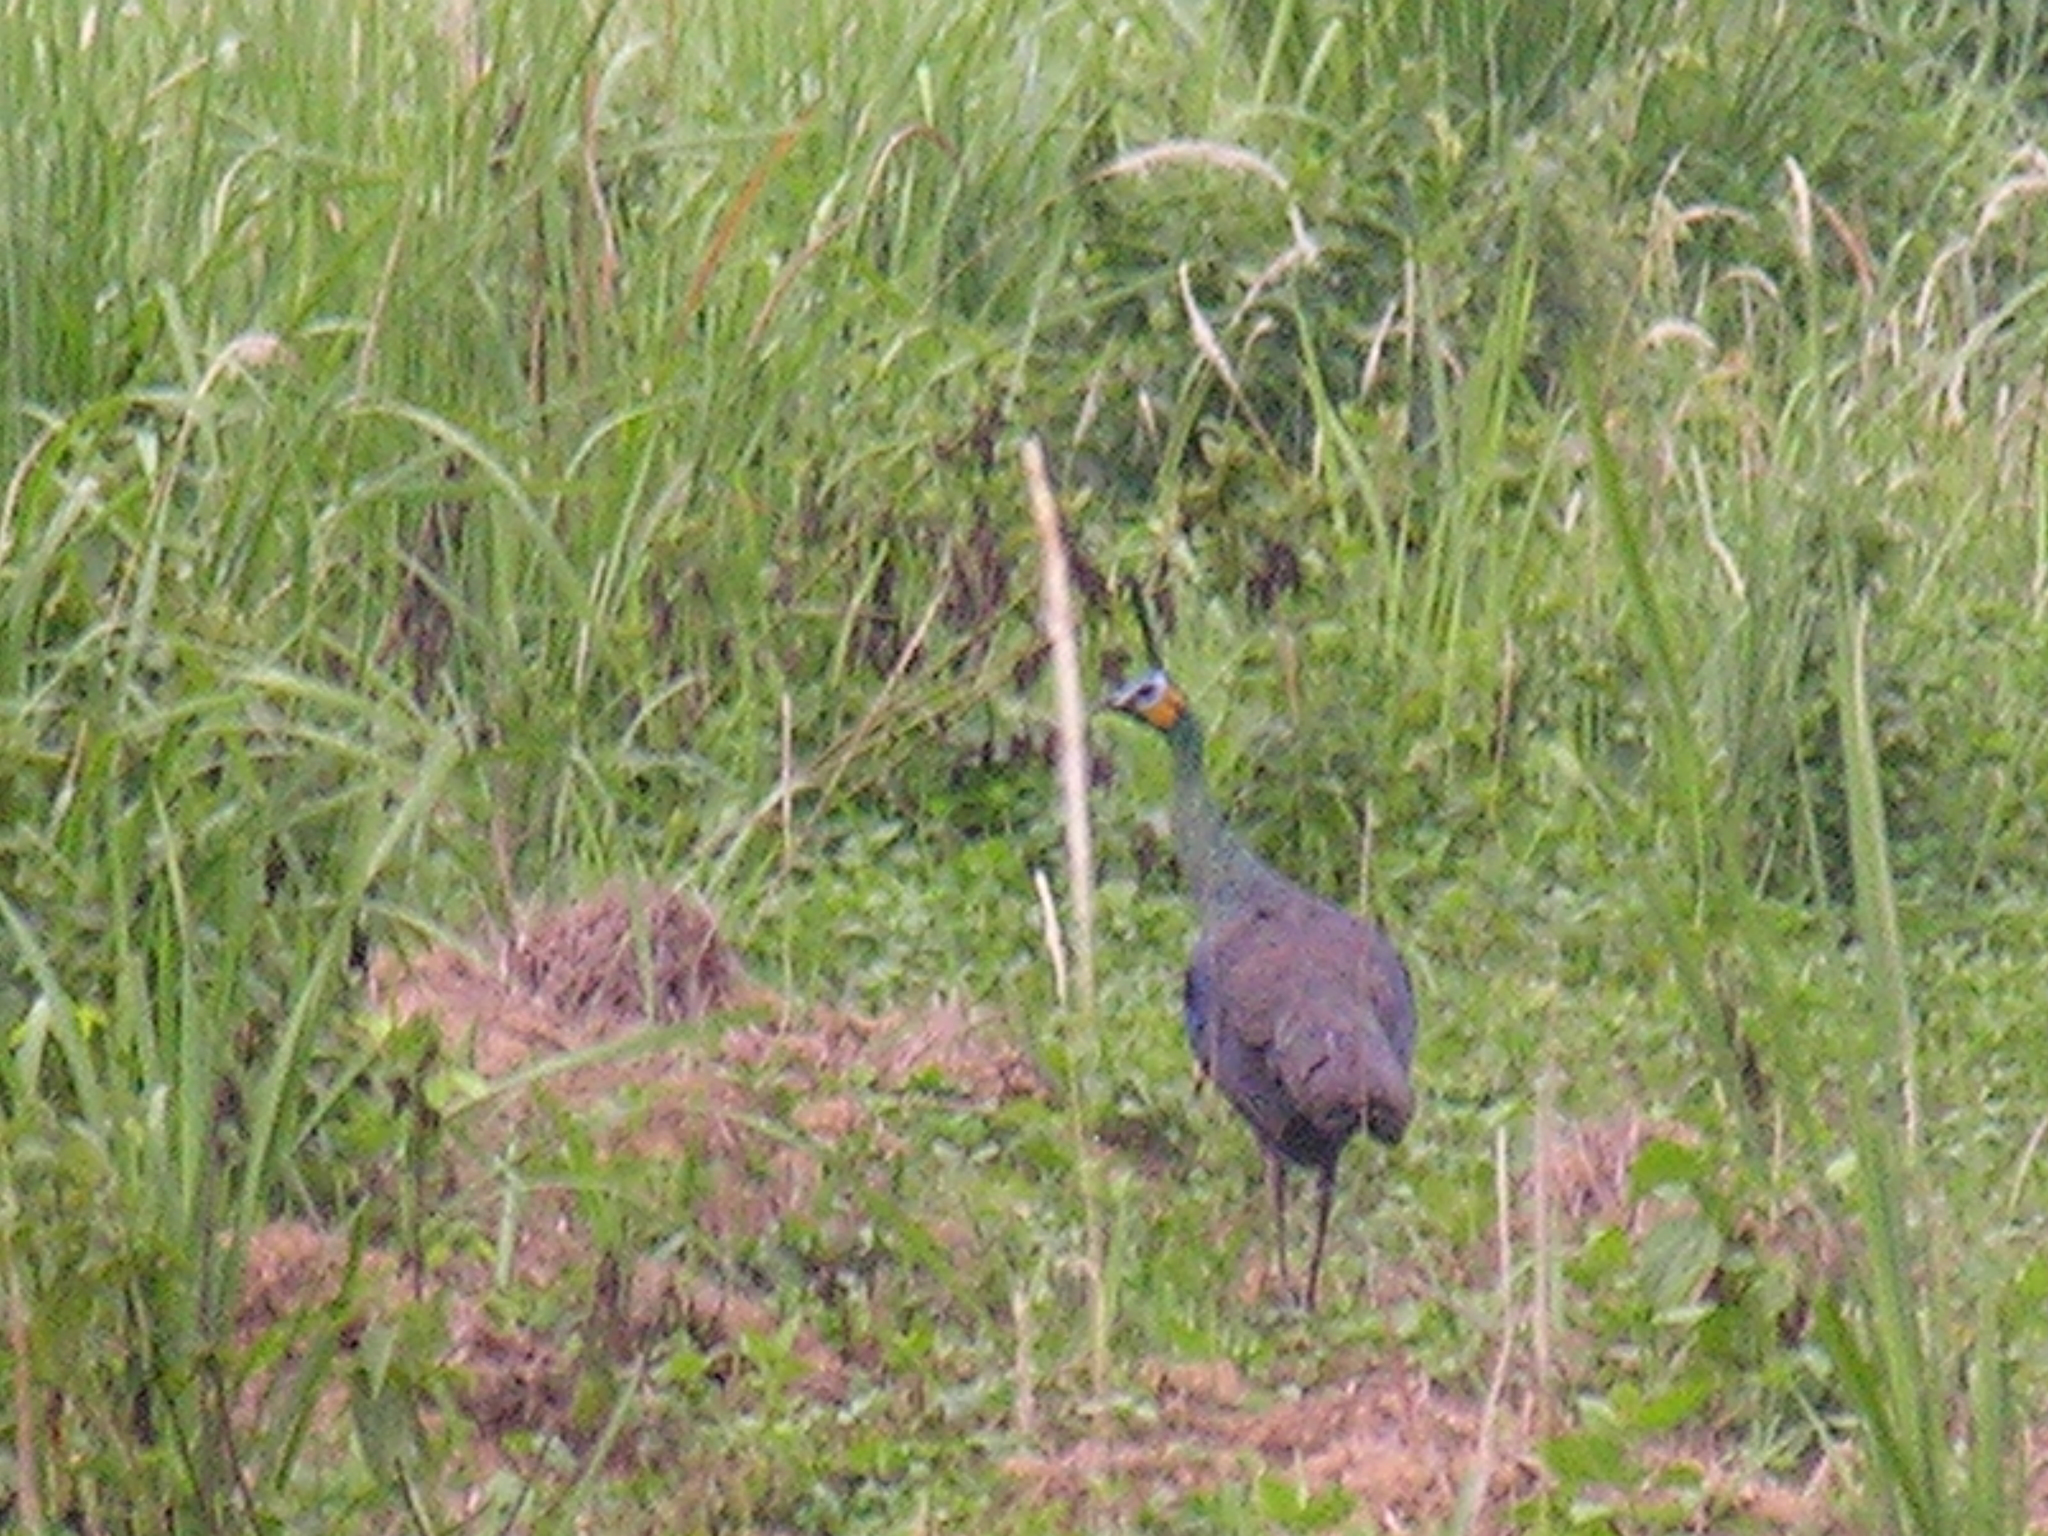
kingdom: Animalia
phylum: Chordata
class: Aves
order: Galliformes
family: Phasianidae
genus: Pavo
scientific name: Pavo muticus
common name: Green peafowl
